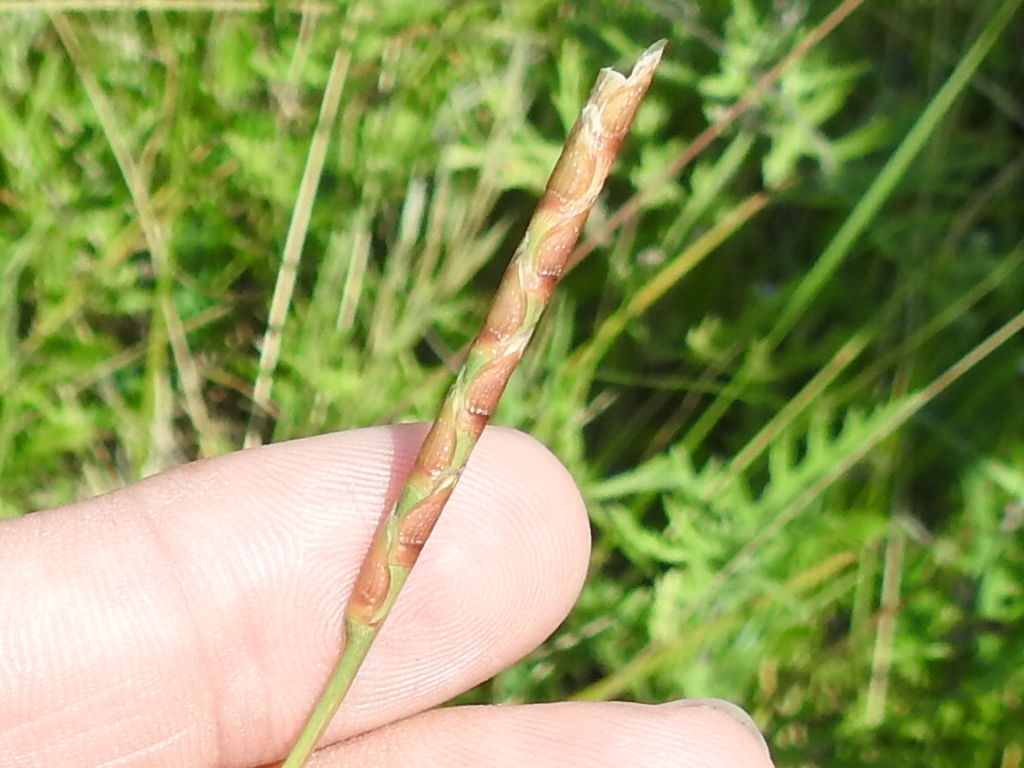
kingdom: Plantae
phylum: Tracheophyta
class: Liliopsida
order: Poales
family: Poaceae
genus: Rottboellia
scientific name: Rottboellia campestris
